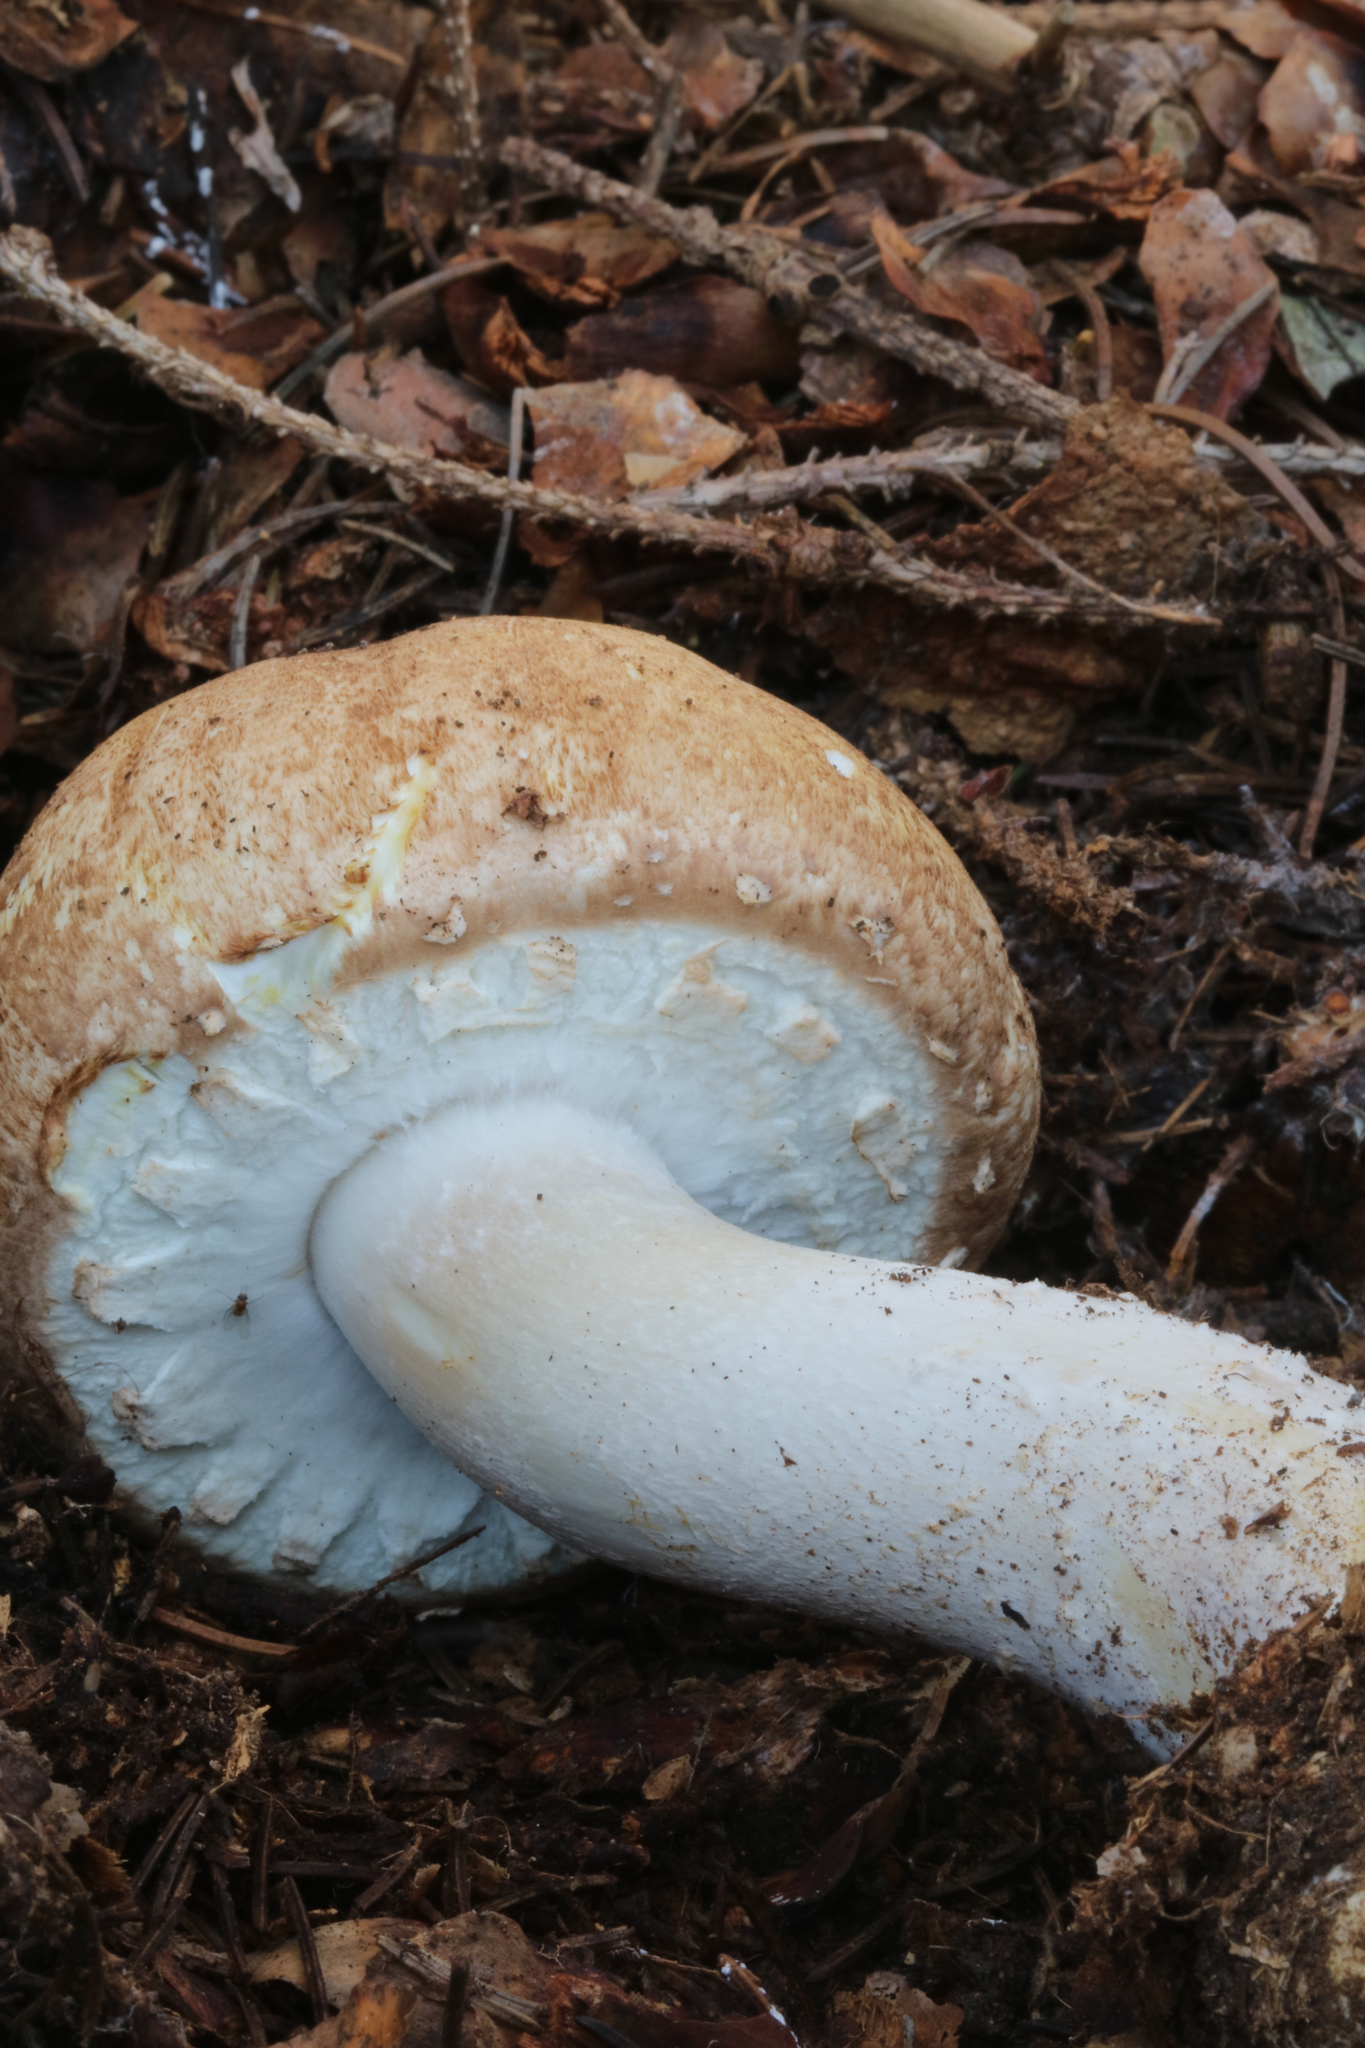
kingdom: Fungi
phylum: Basidiomycota
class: Agaricomycetes
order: Agaricales
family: Agaricaceae
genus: Agaricus
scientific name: Agaricus nanaugustus
